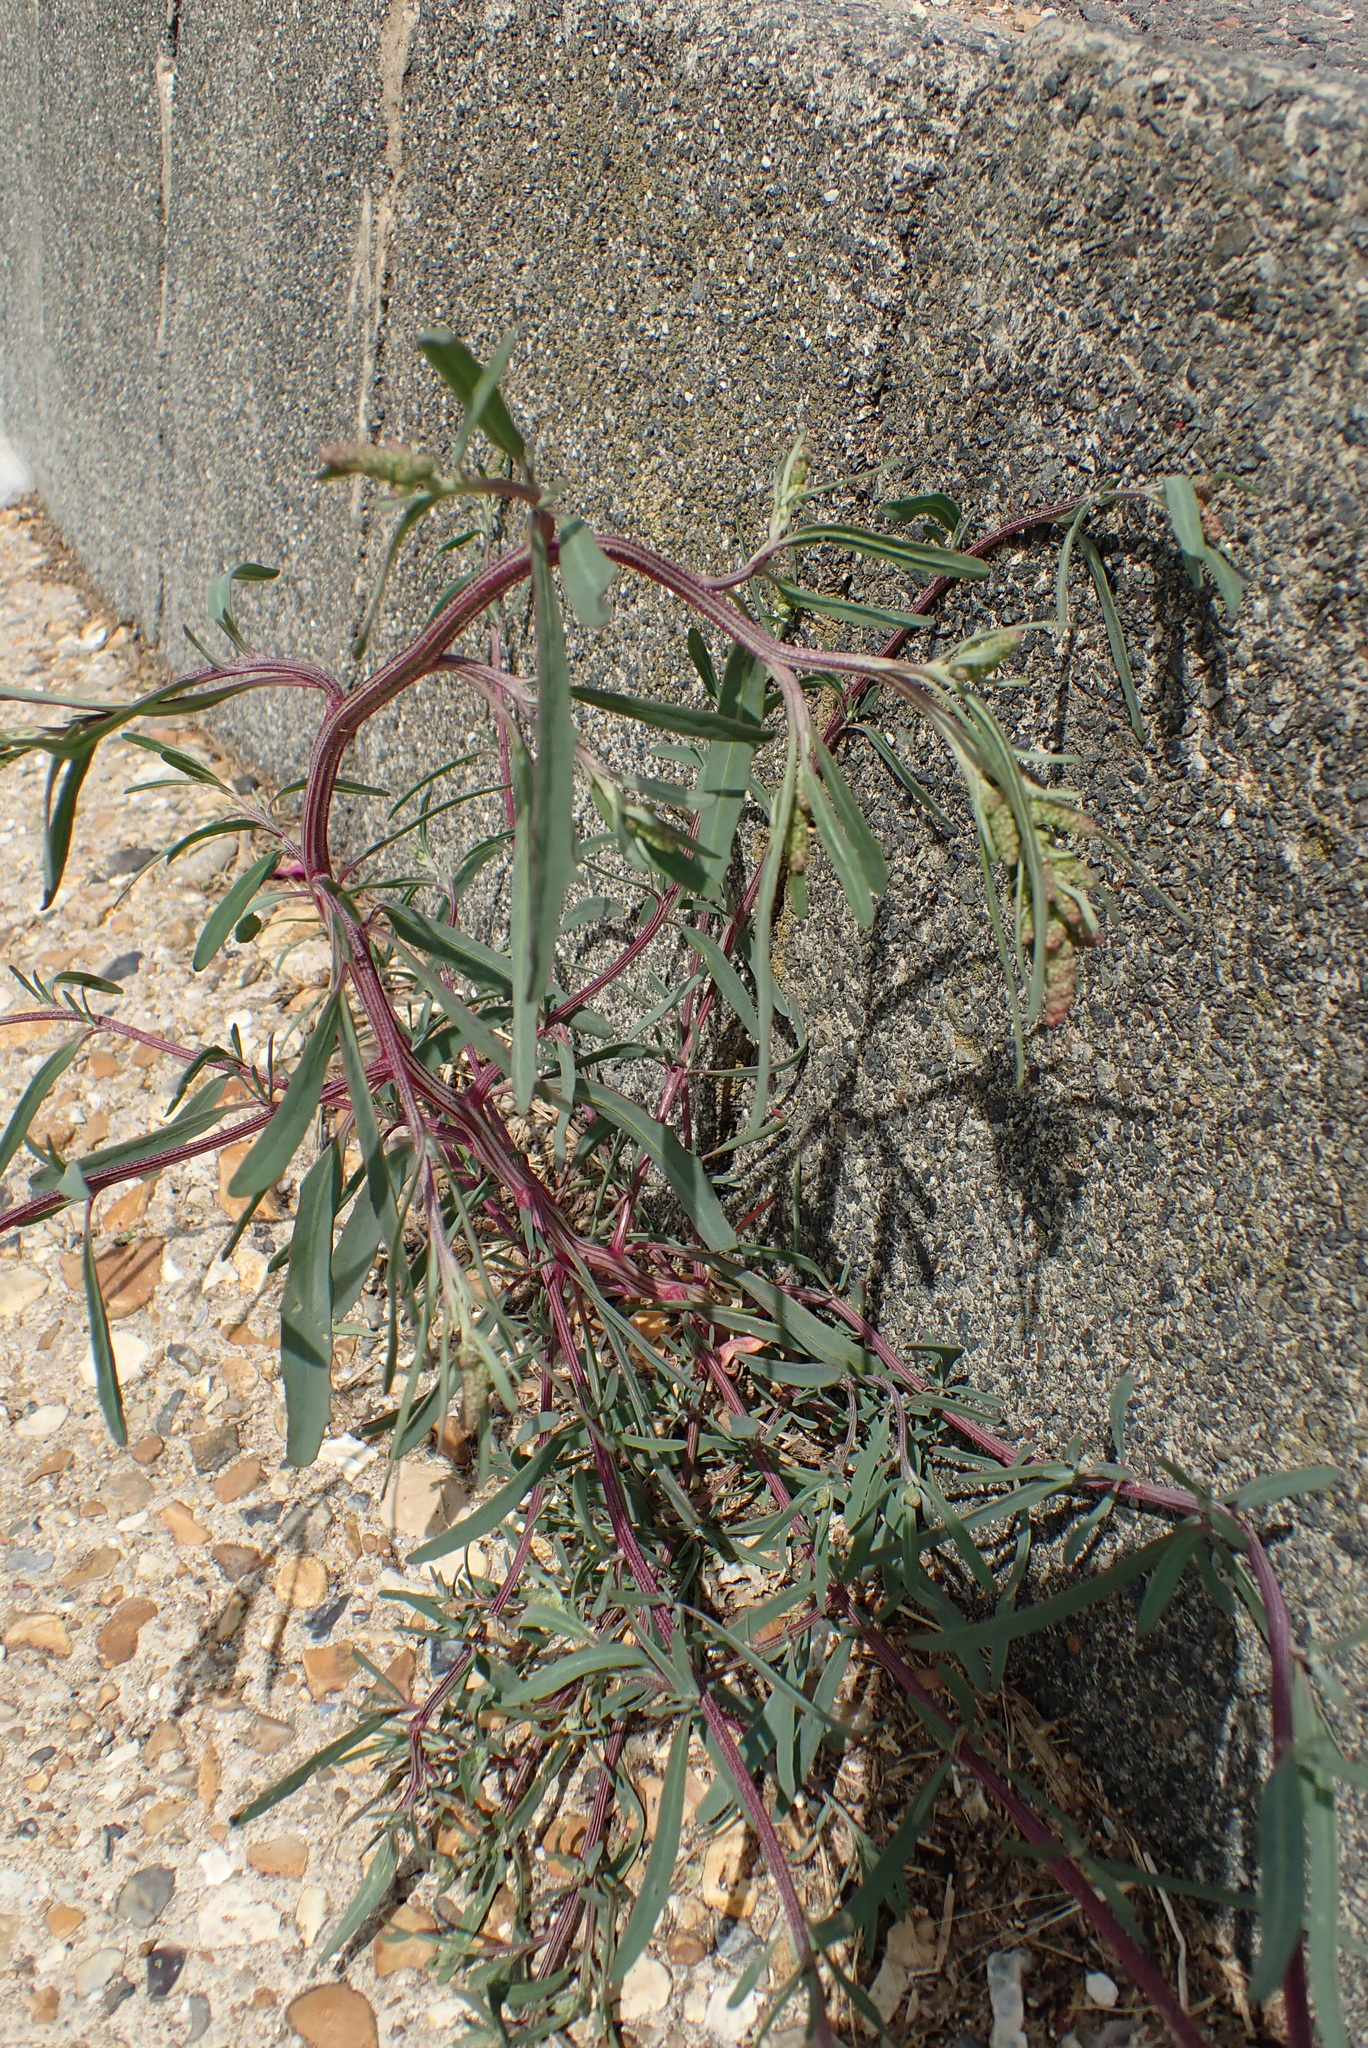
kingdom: Plantae
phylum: Tracheophyta
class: Magnoliopsida
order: Caryophyllales
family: Amaranthaceae
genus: Atriplex
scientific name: Atriplex littoralis
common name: Grass-leaved orache
